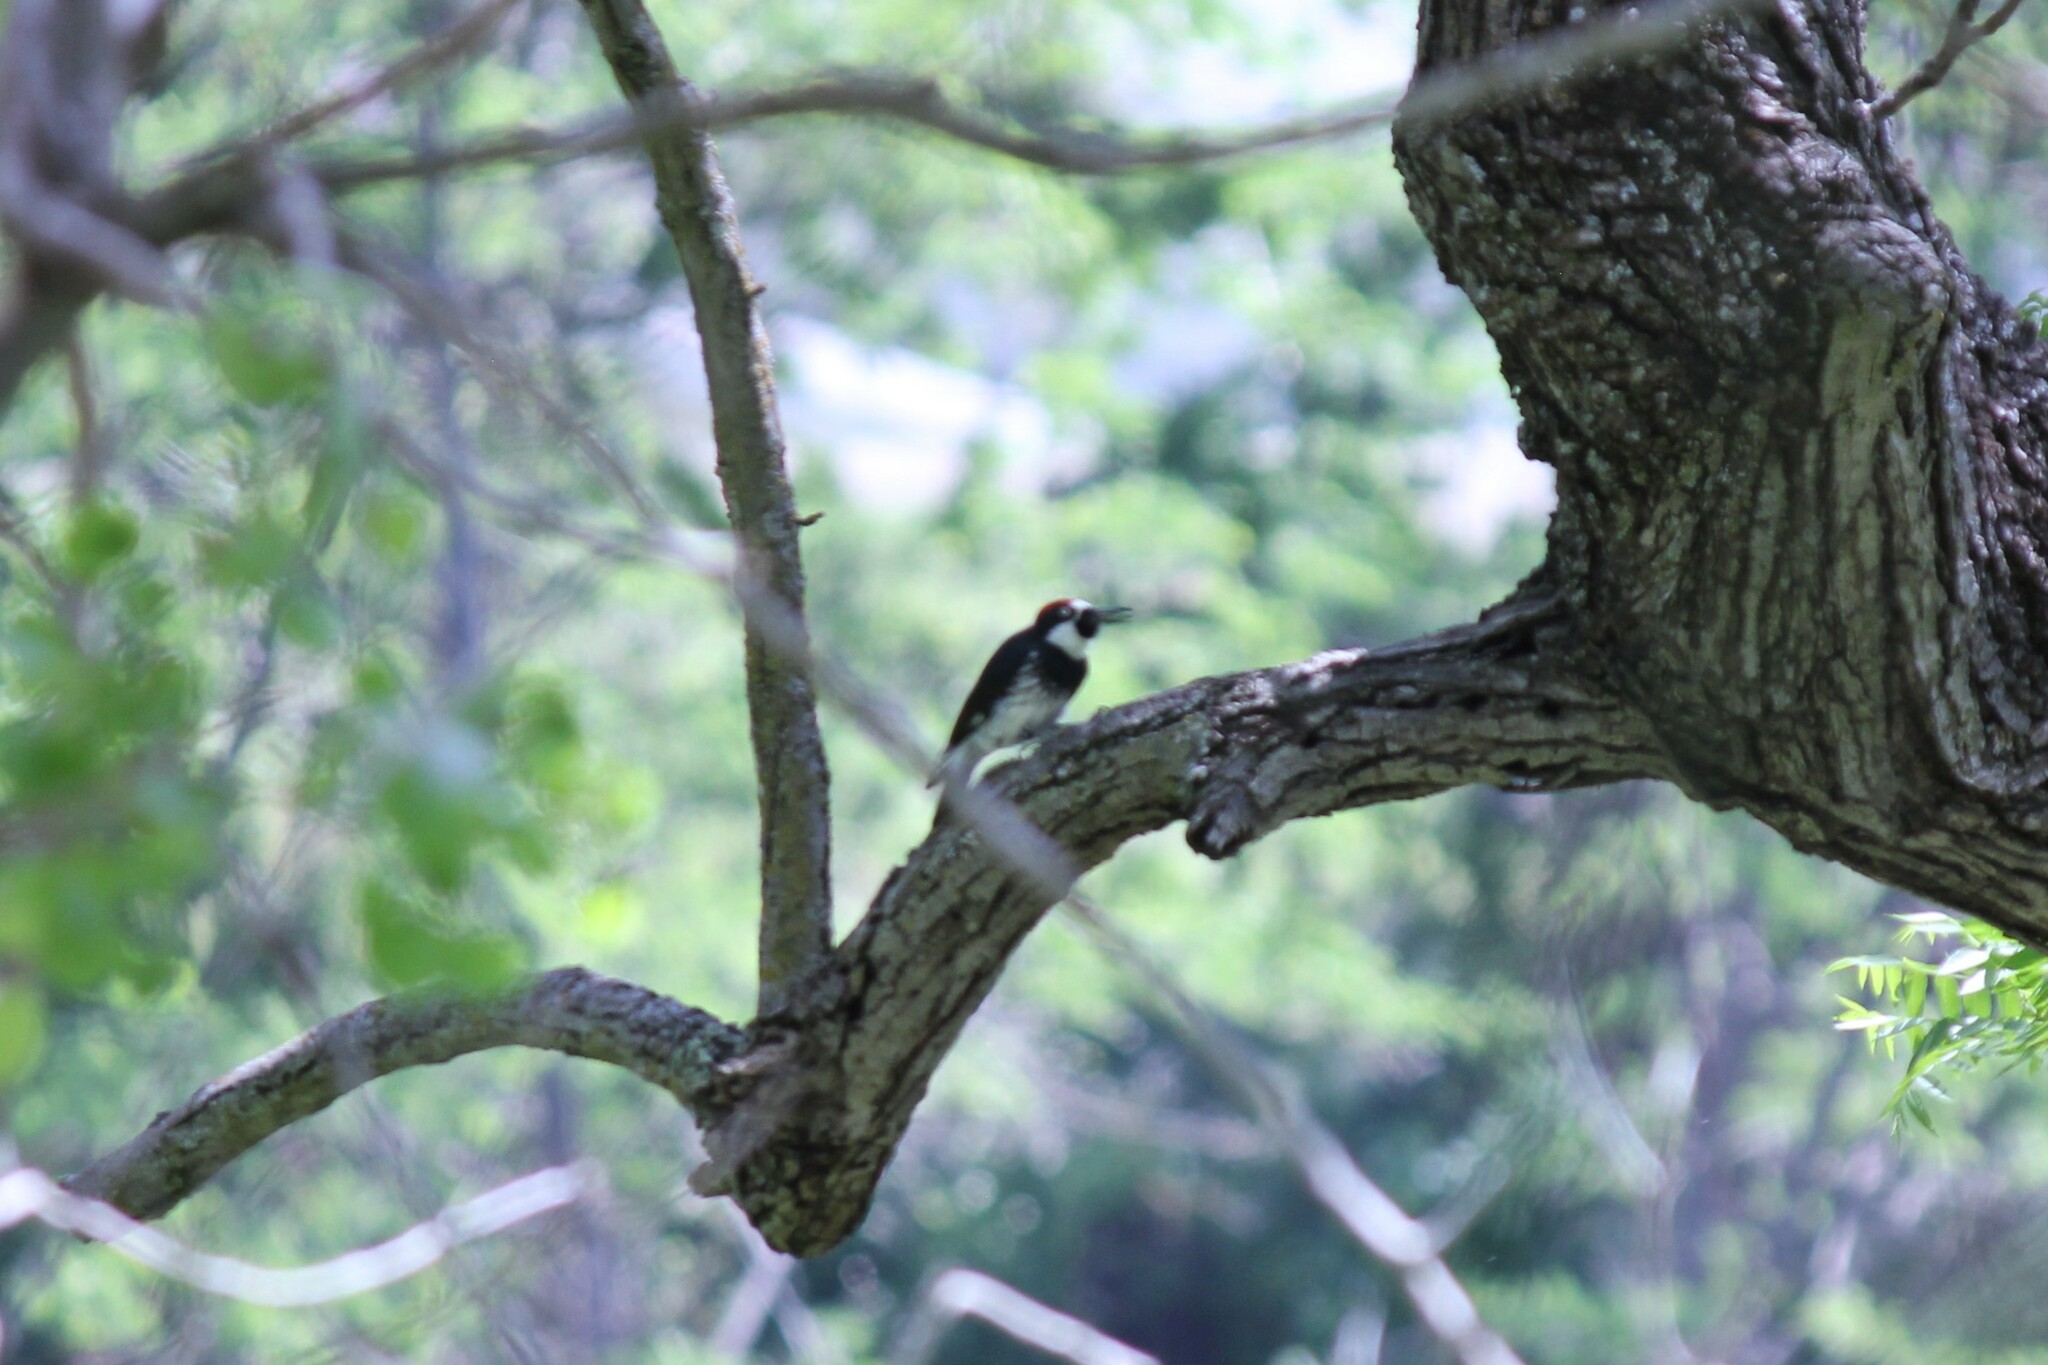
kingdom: Animalia
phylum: Chordata
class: Aves
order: Piciformes
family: Picidae
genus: Melanerpes
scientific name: Melanerpes formicivorus
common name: Acorn woodpecker
